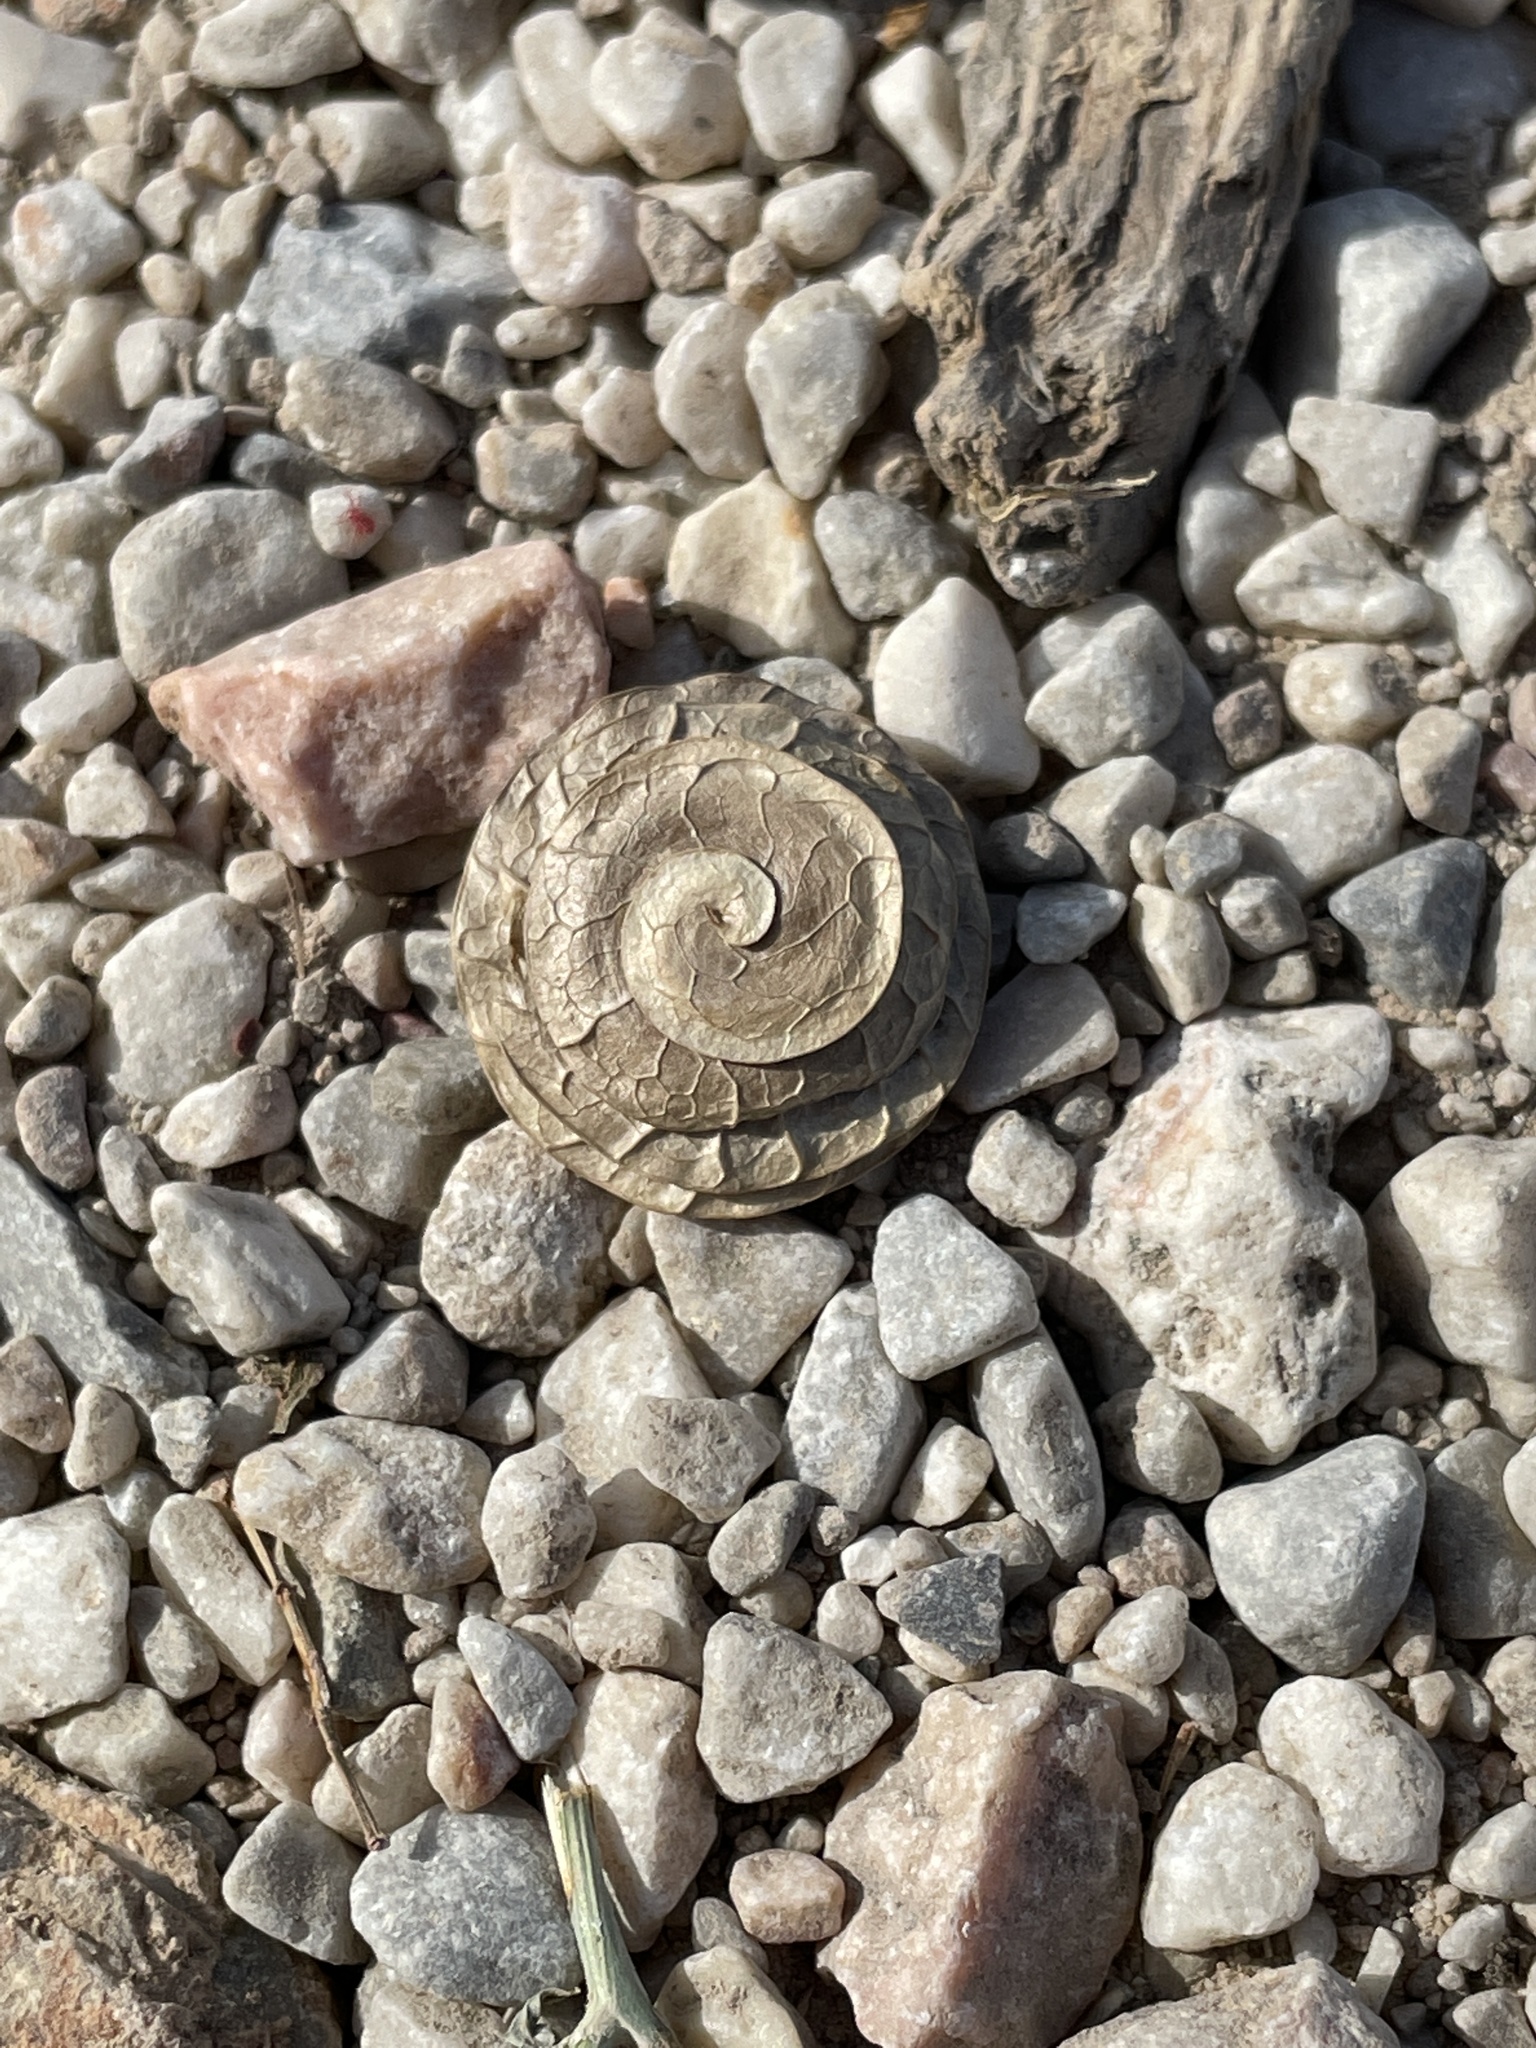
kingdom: Plantae
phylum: Tracheophyta
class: Magnoliopsida
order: Fabales
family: Fabaceae
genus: Medicago
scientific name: Medicago orbicularis
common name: Button medick
